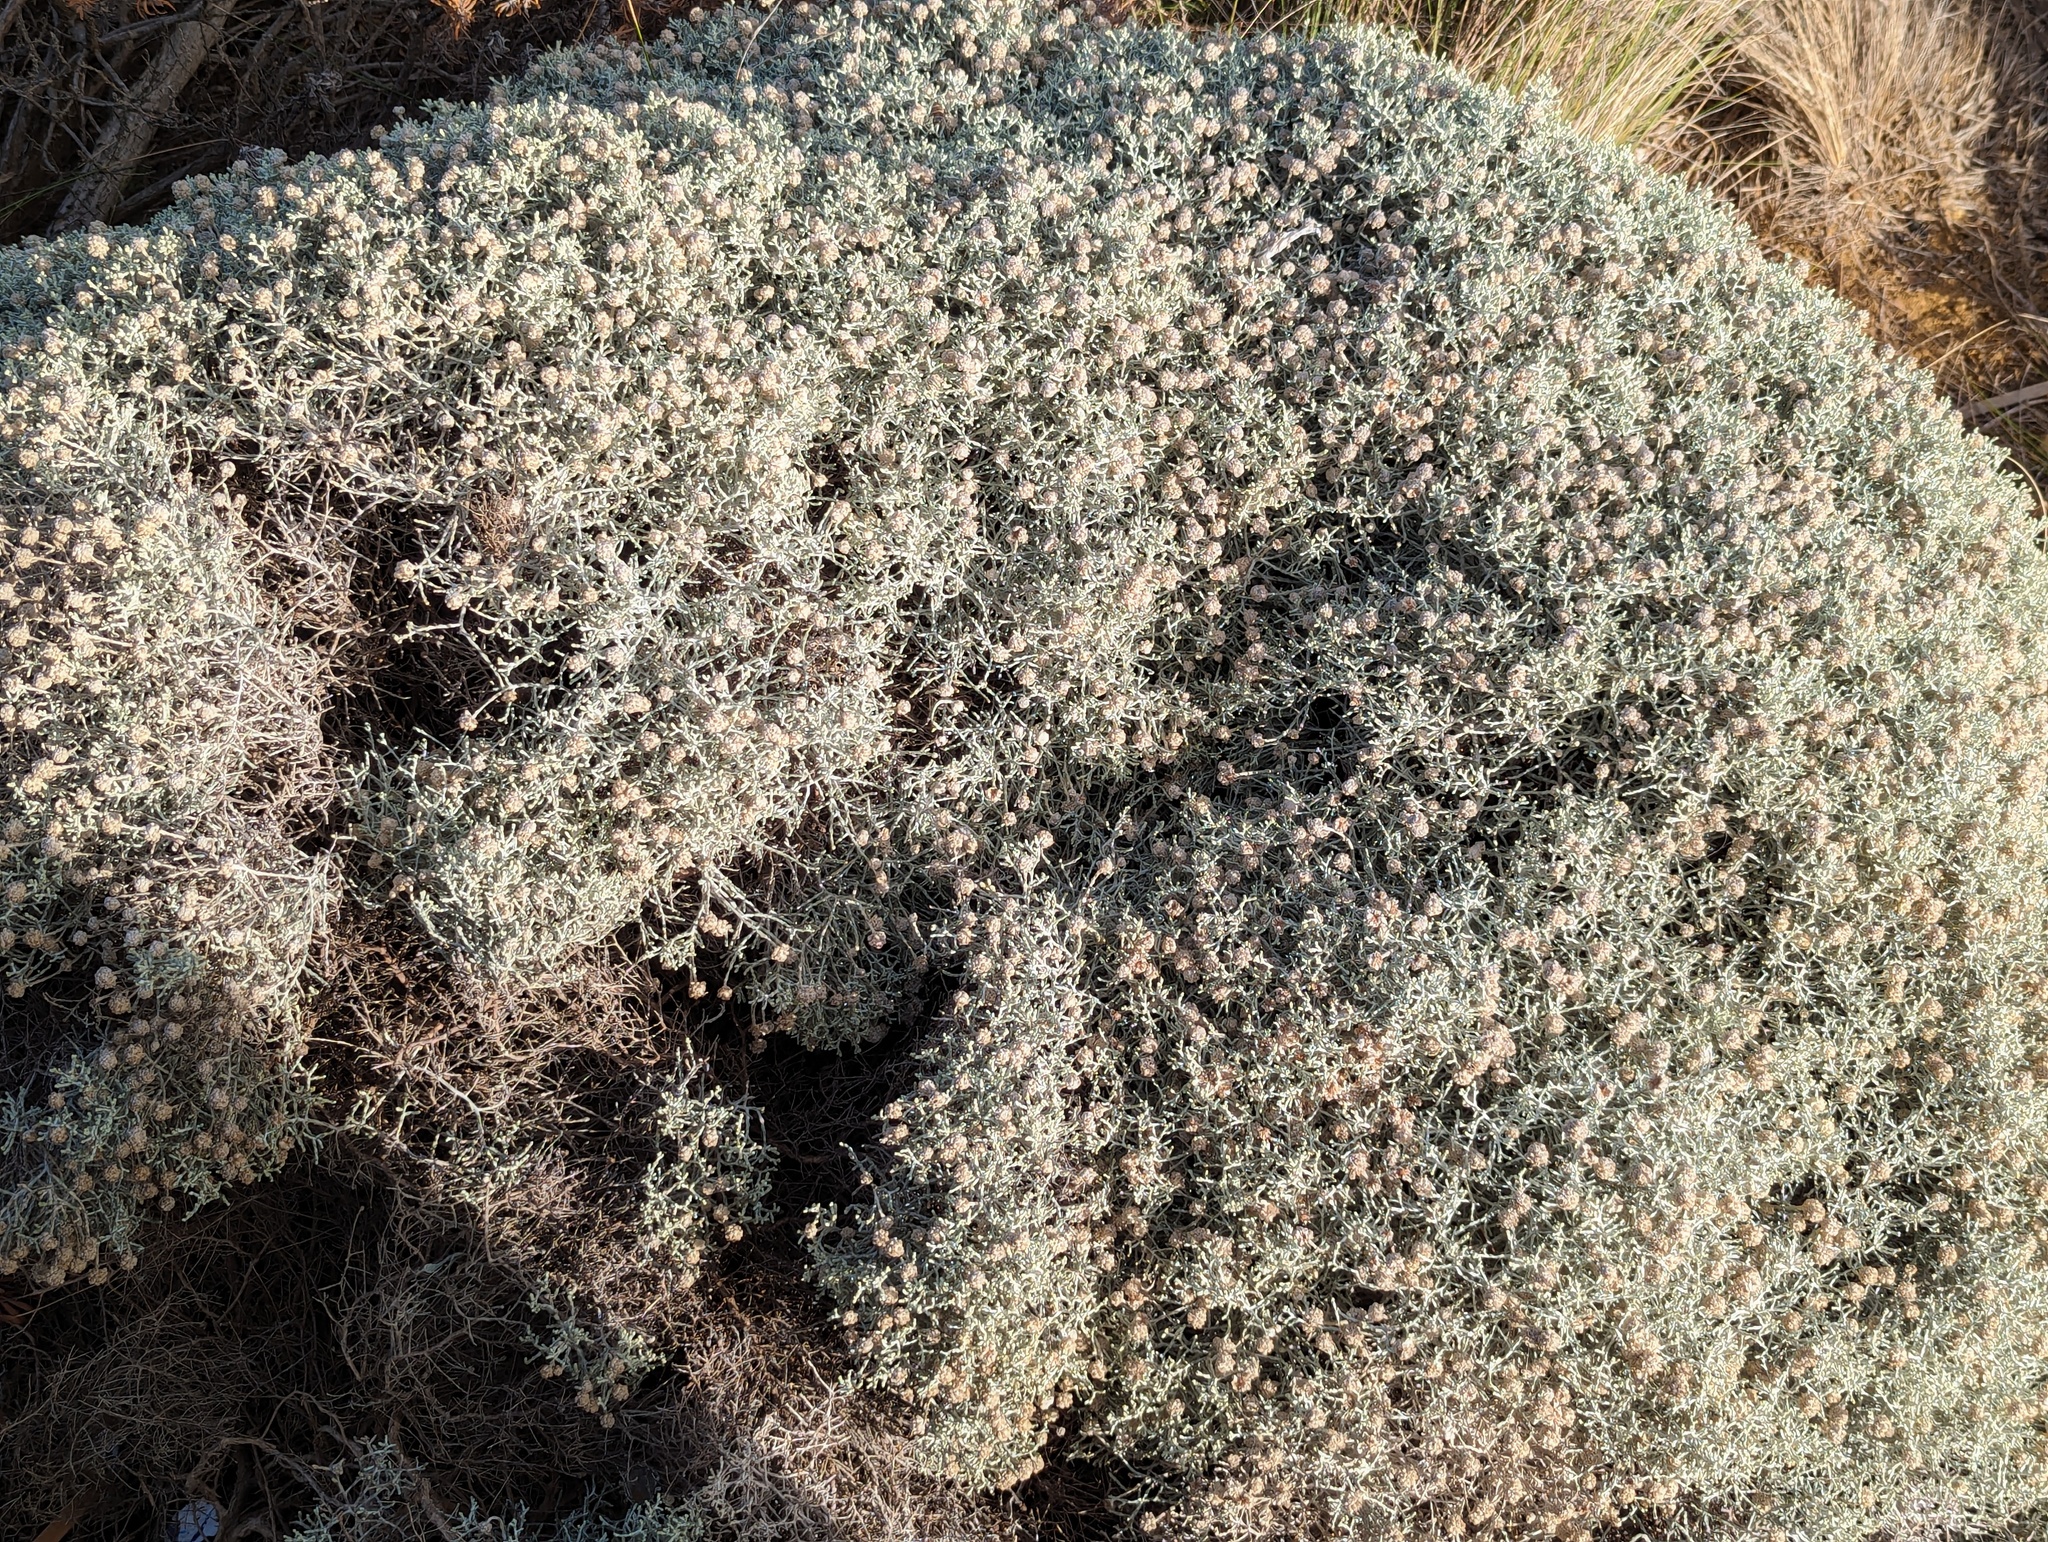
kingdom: Plantae
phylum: Tracheophyta
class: Magnoliopsida
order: Asterales
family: Asteraceae
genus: Calocephalus
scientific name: Calocephalus brownii
